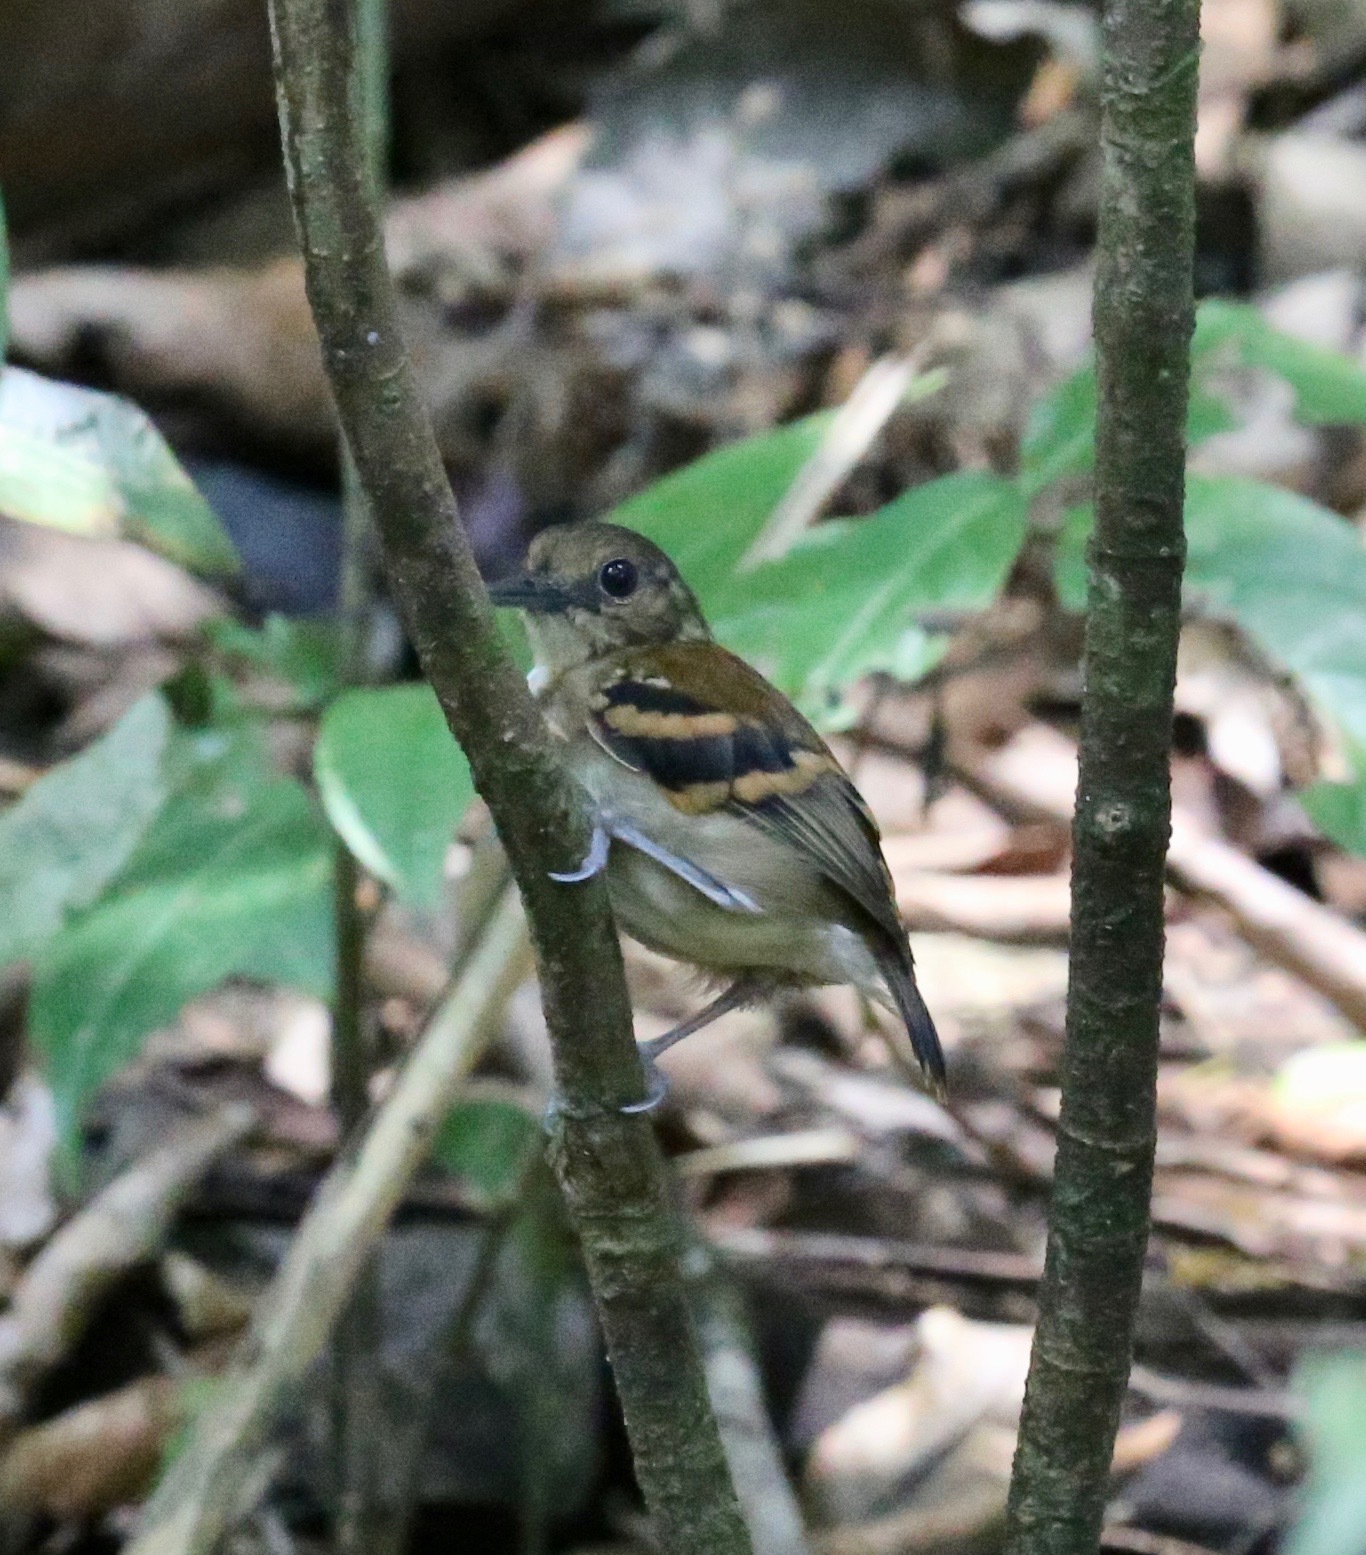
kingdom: Animalia
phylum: Chordata
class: Aves
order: Passeriformes
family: Thamnophilidae
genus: Hylophylax
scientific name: Hylophylax naevioides
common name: Spotted antbird
